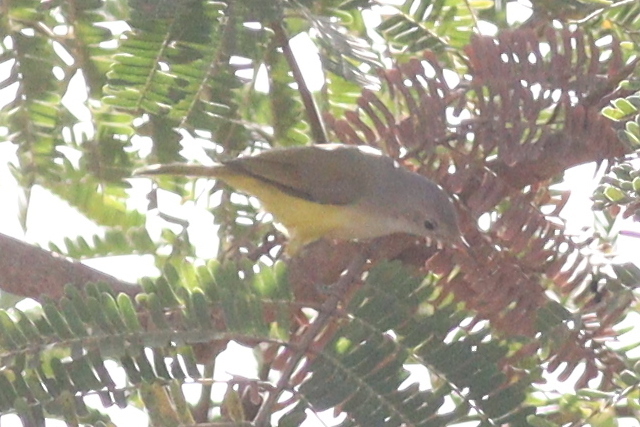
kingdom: Animalia
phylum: Chordata
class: Aves
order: Passeriformes
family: Cisticolidae
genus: Eremomela
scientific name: Eremomela pusilla
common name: Senegal eremomela
